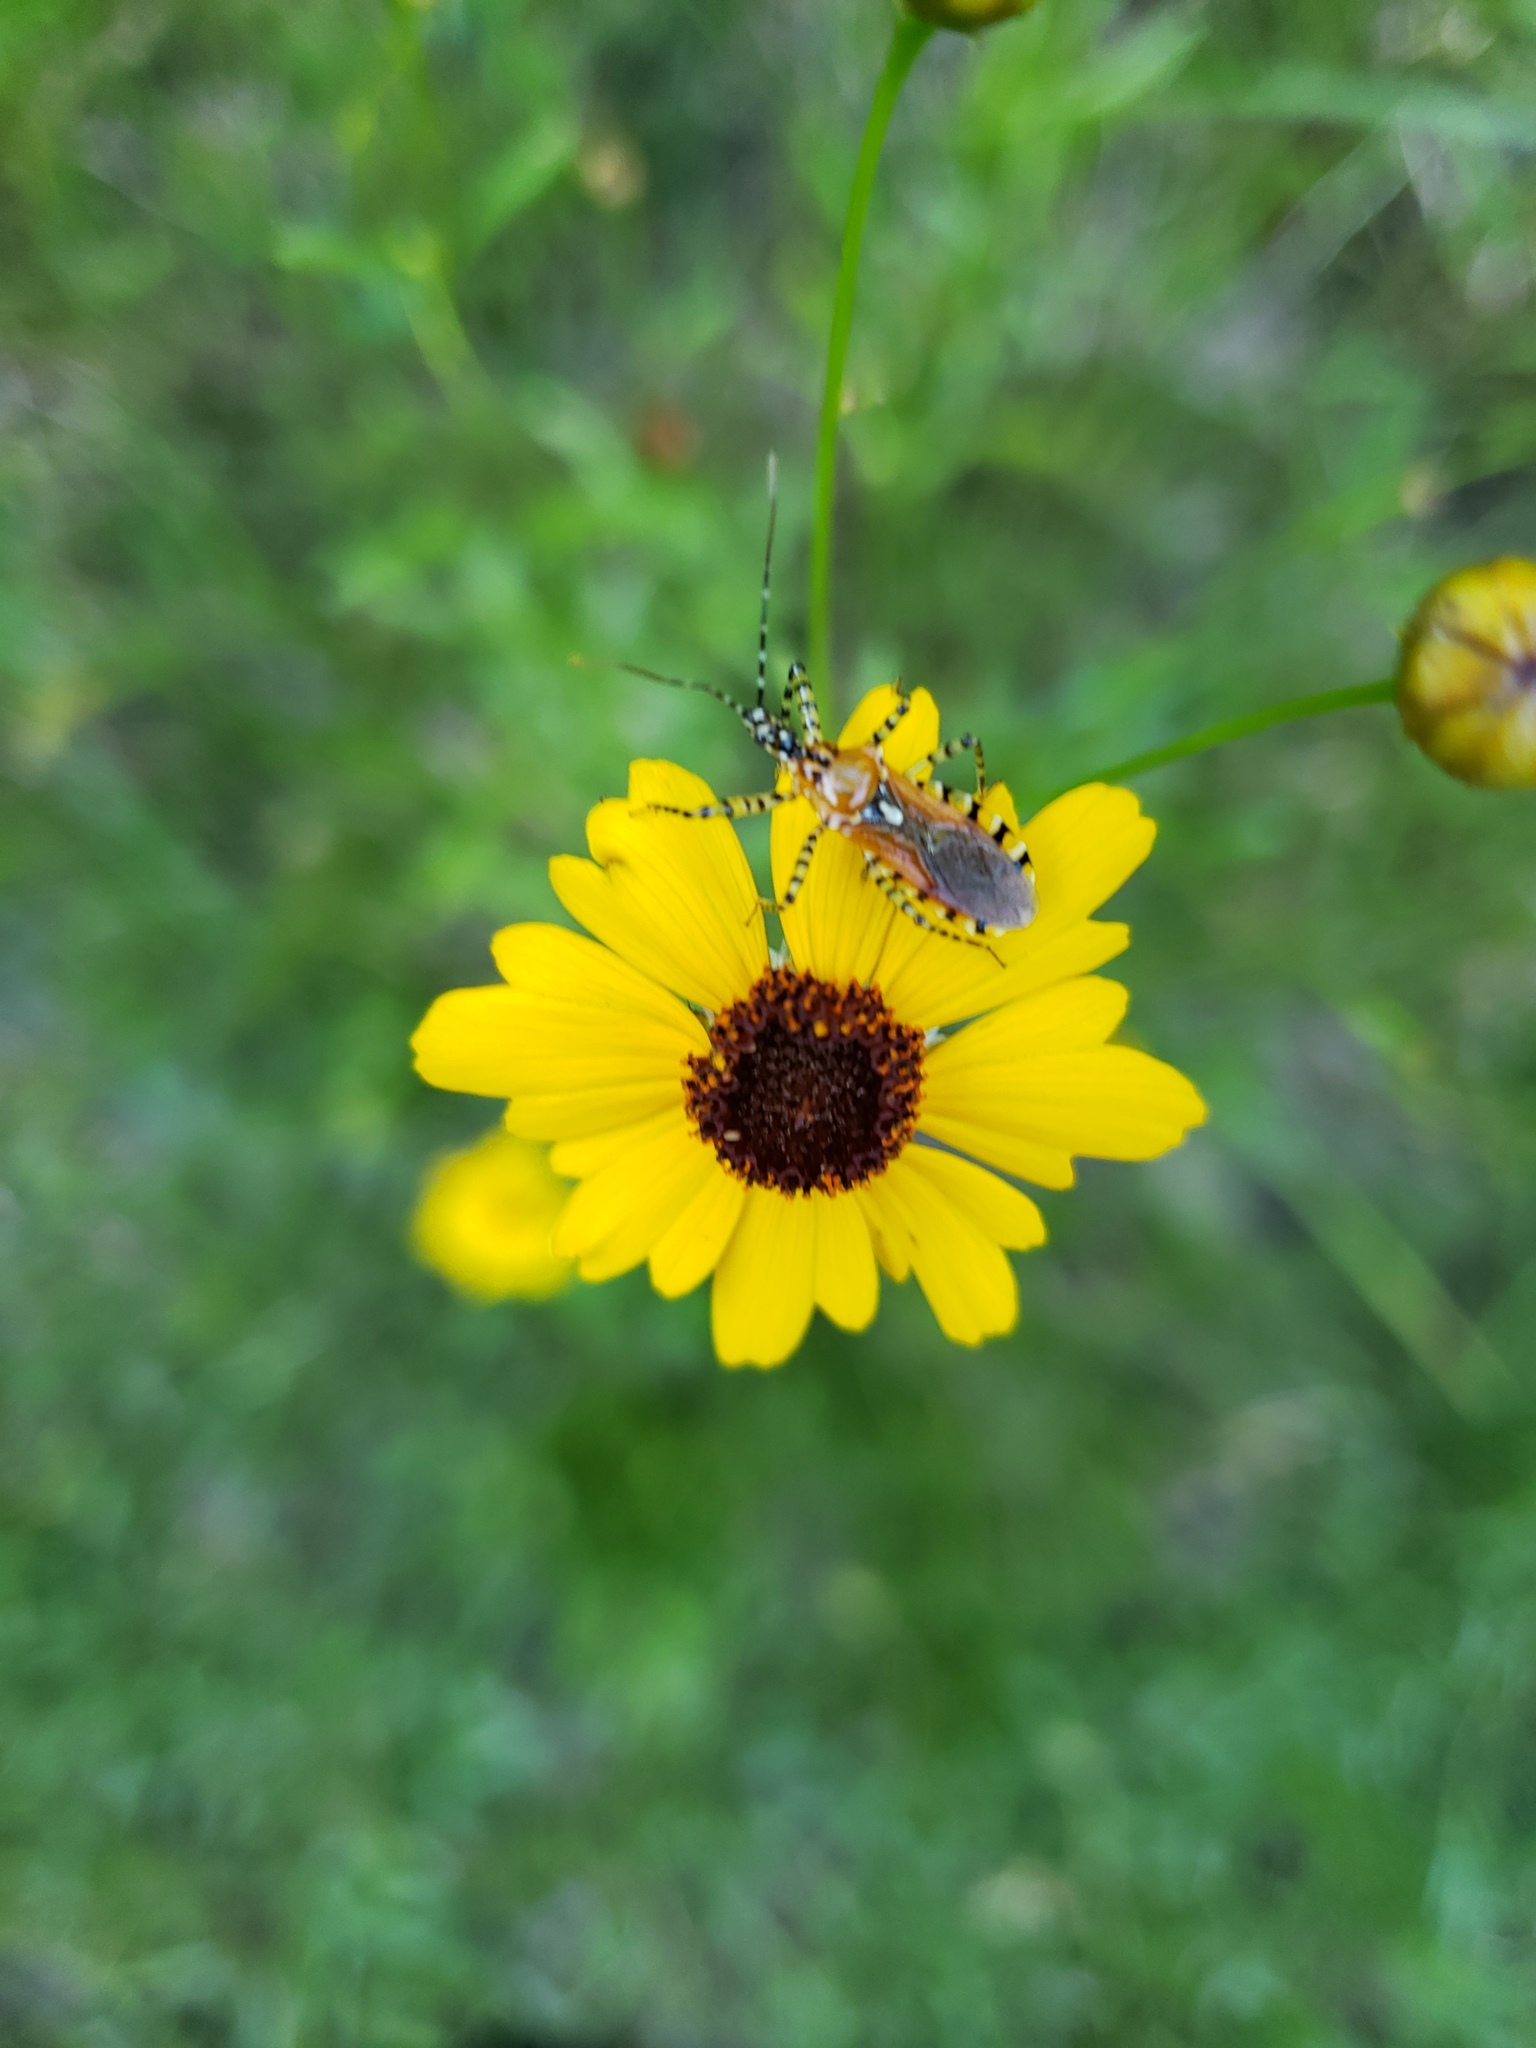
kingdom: Plantae
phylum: Tracheophyta
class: Magnoliopsida
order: Asterales
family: Asteraceae
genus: Coreopsis
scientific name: Coreopsis leavenworthii
